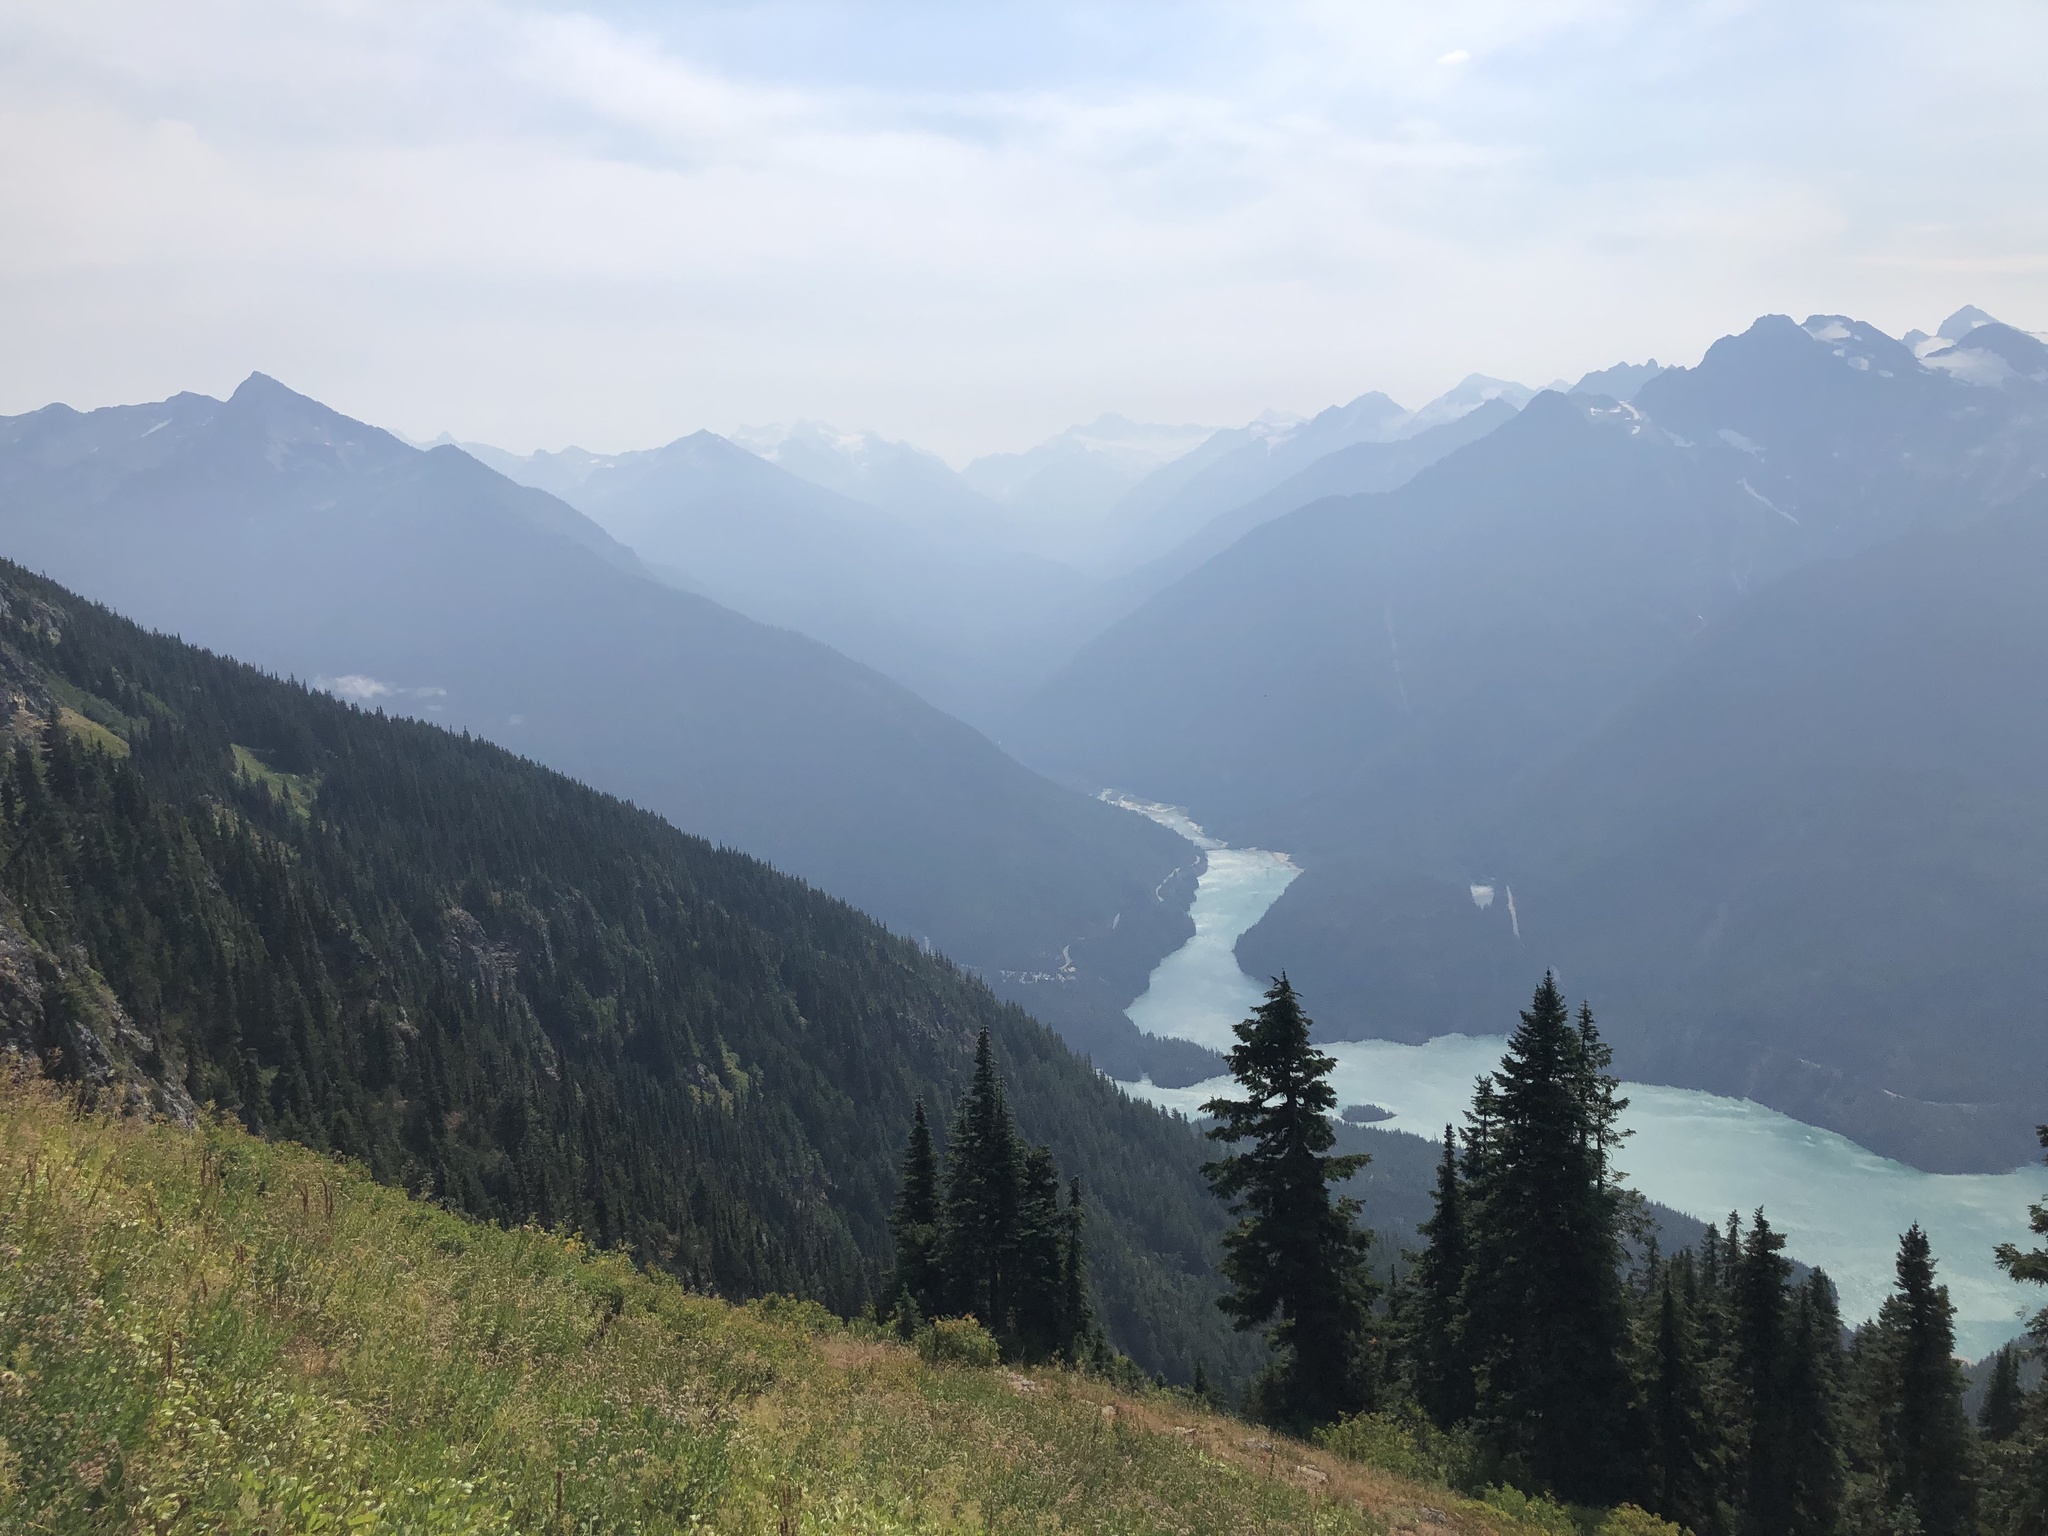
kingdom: Plantae
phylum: Tracheophyta
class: Pinopsida
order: Pinales
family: Pinaceae
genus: Abies
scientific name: Abies amabilis
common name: Pacific silver fir
